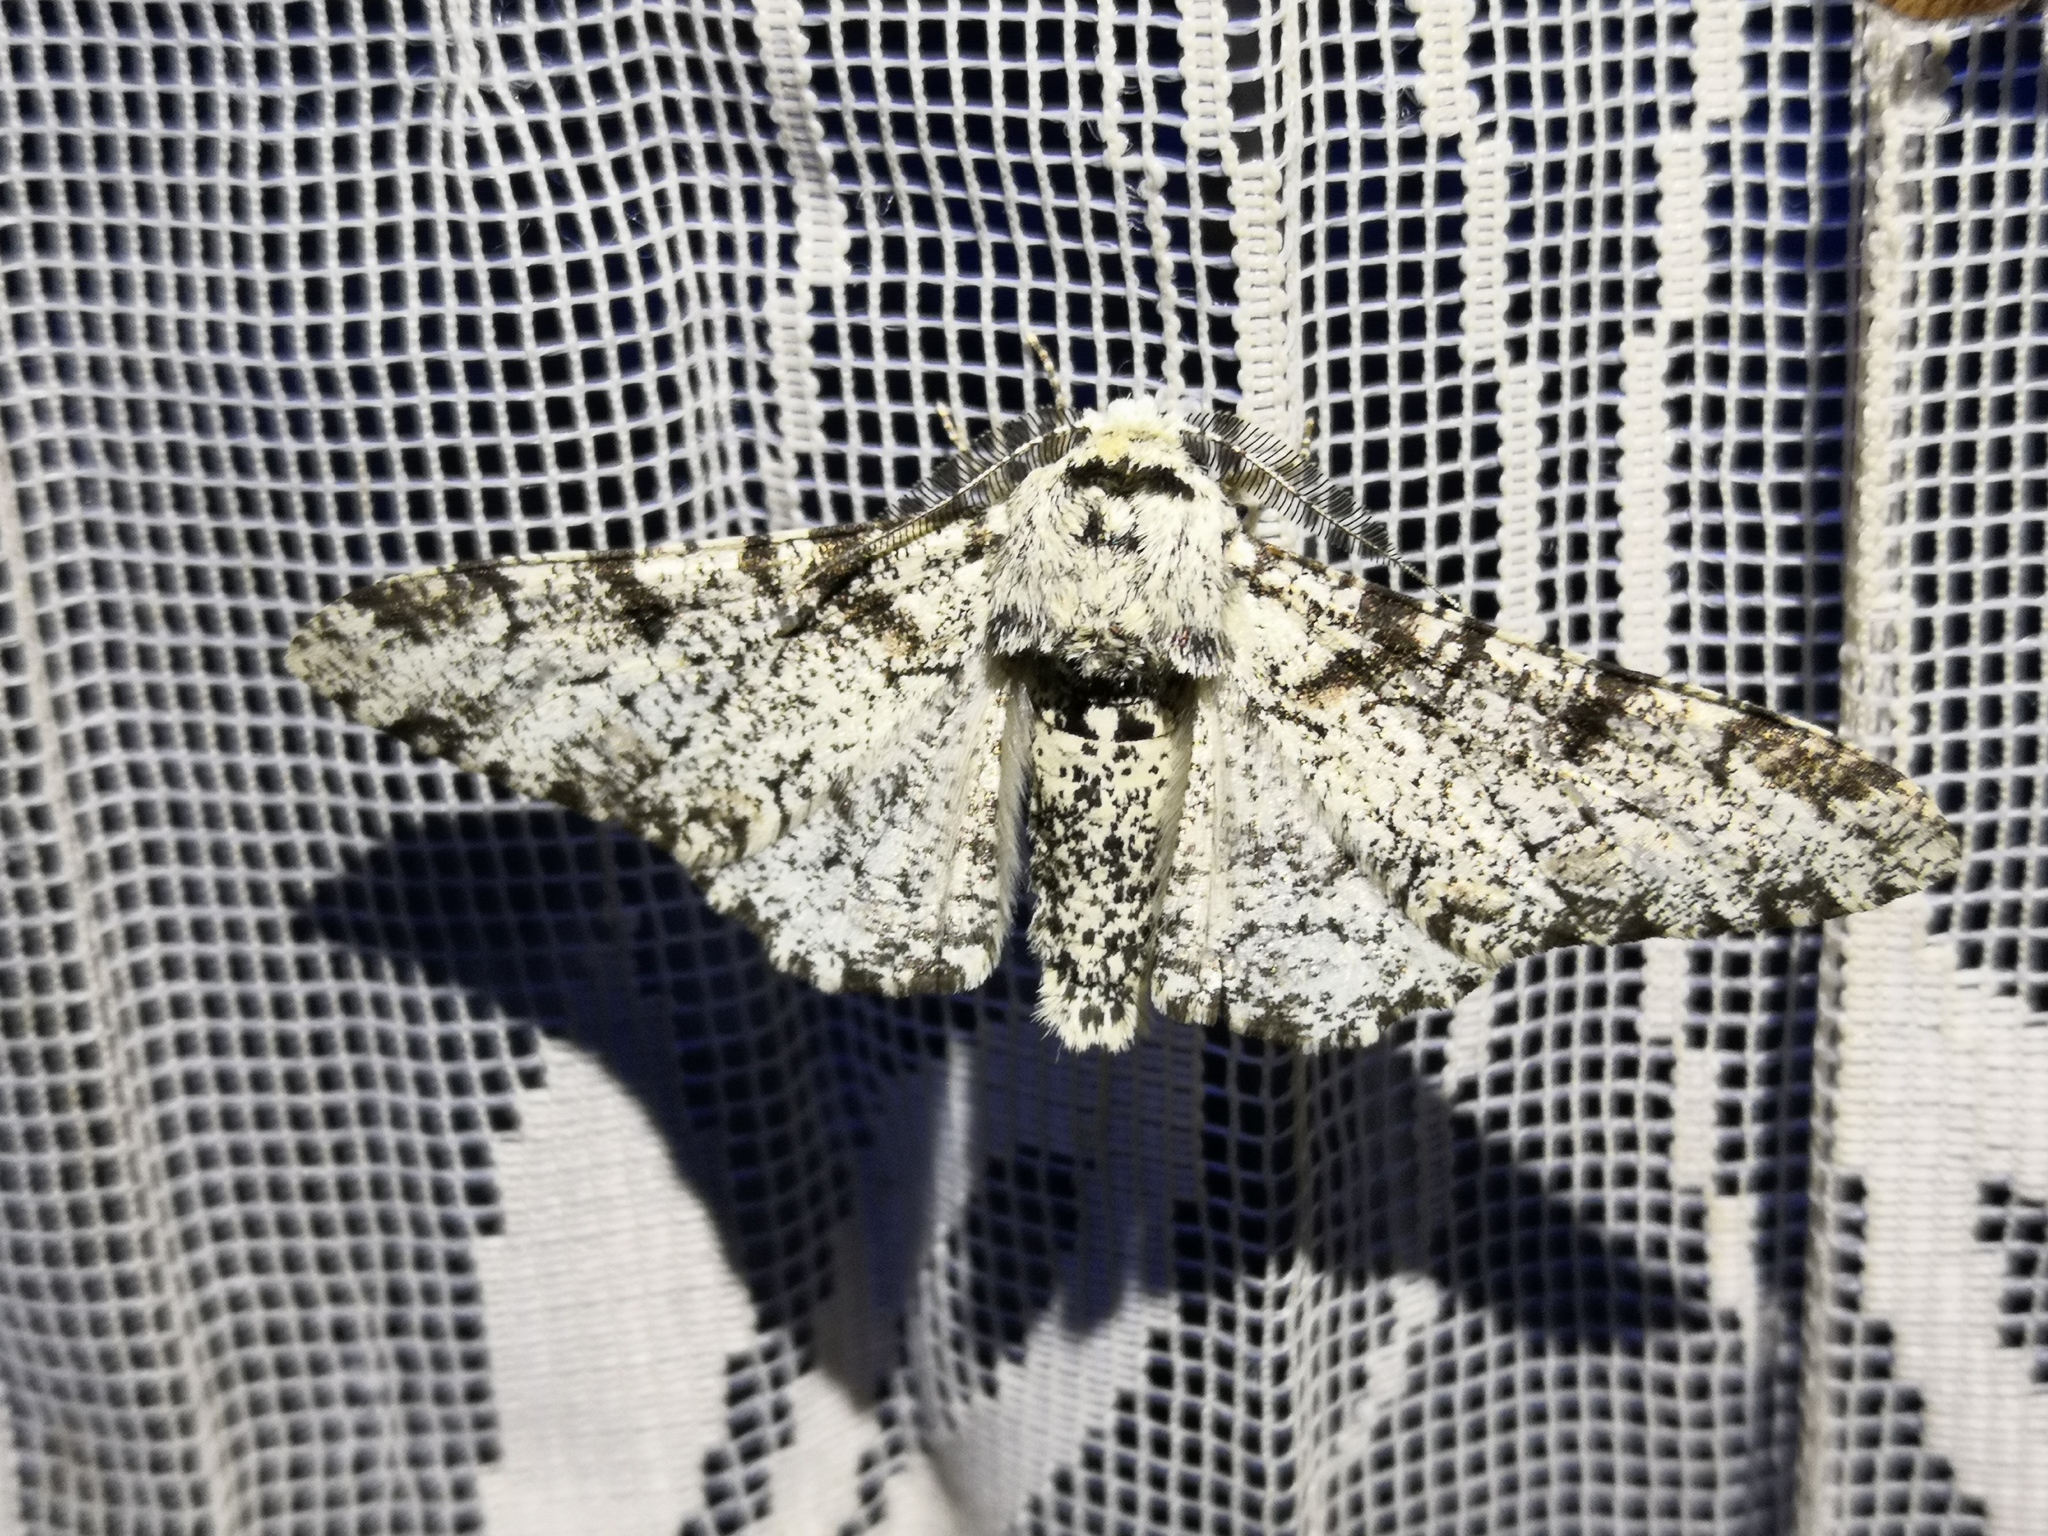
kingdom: Animalia
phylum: Arthropoda
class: Insecta
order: Lepidoptera
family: Geometridae
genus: Biston
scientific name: Biston betularia
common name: Peppered moth
